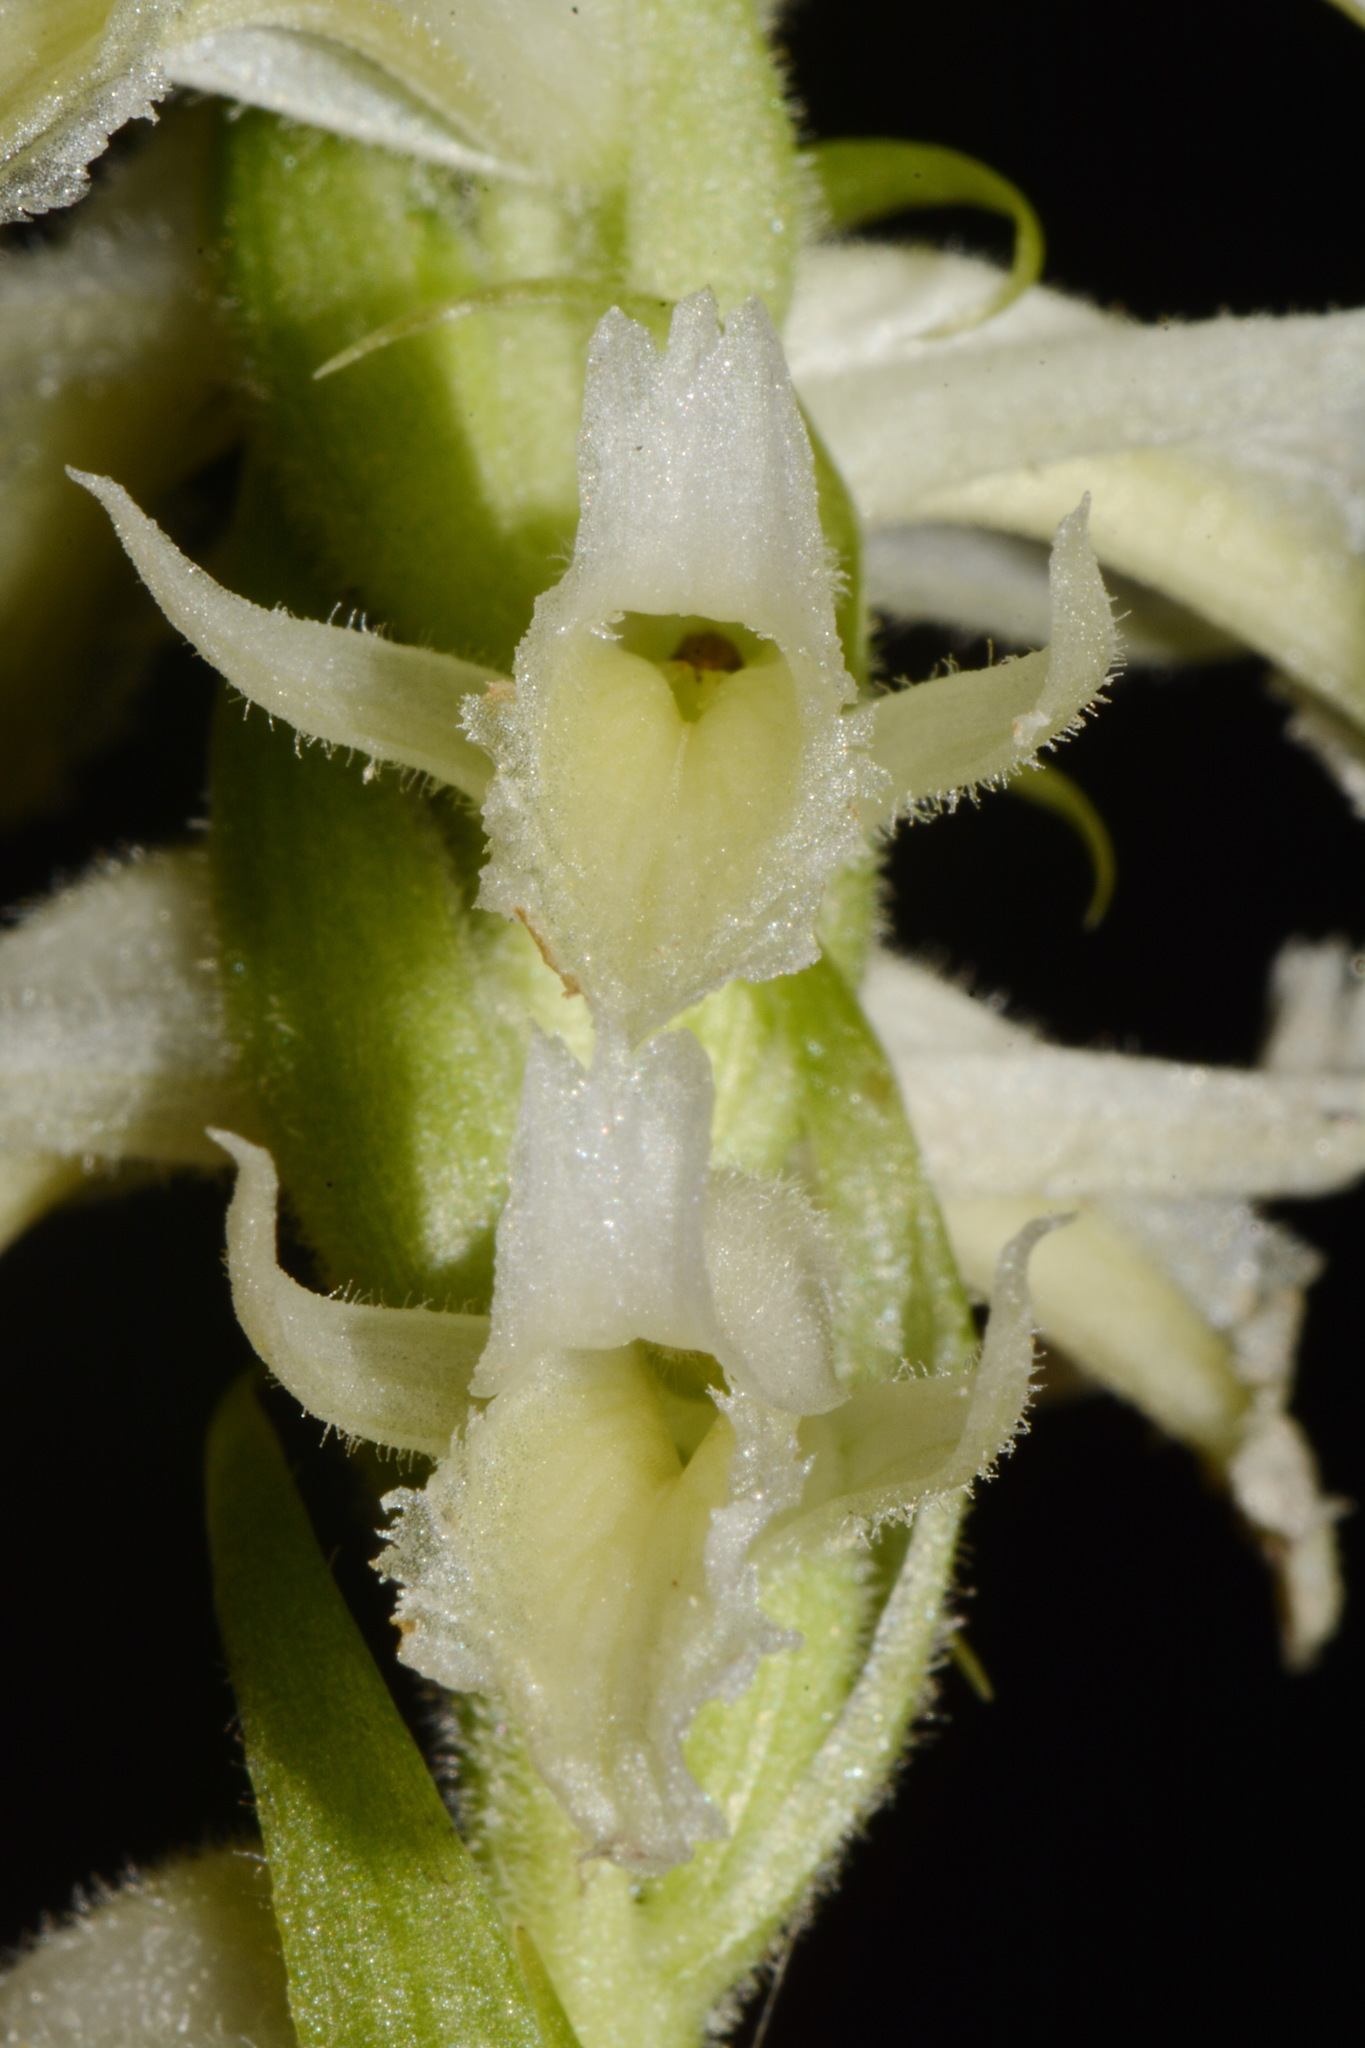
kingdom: Plantae
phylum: Tracheophyta
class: Liliopsida
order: Asparagales
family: Orchidaceae
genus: Spiranthes
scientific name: Spiranthes odorata
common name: Marsh ladies'-tresses
